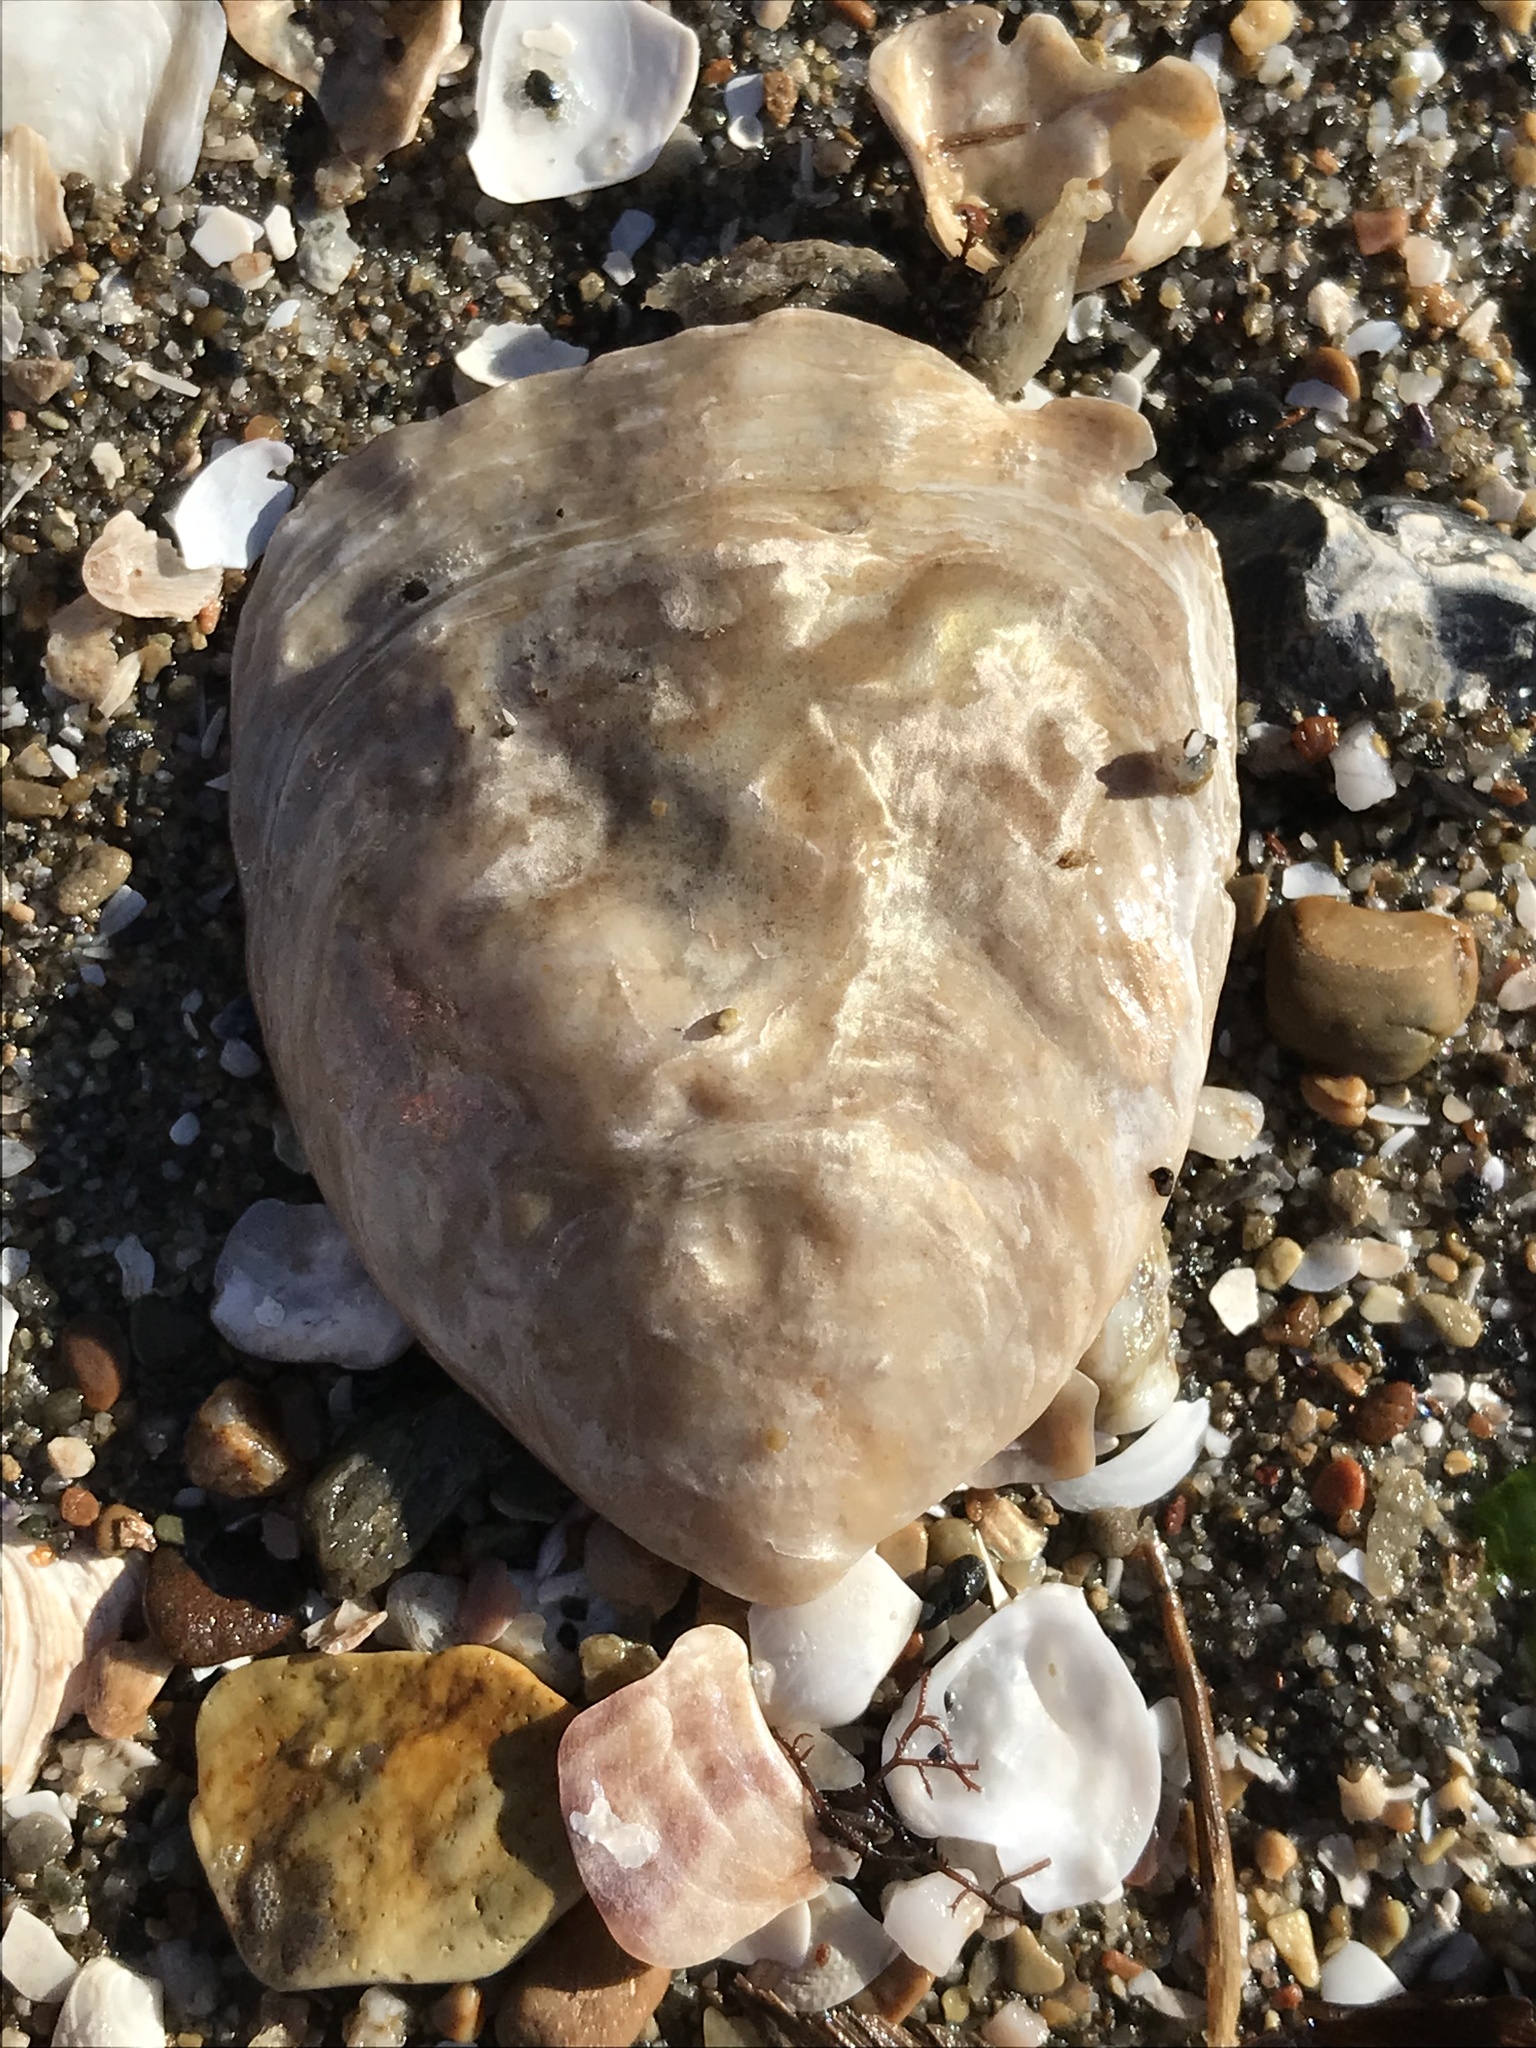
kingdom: Animalia
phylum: Mollusca
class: Bivalvia
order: Ostreida
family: Ostreidae
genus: Ostrea
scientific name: Ostrea lurida
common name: Olympia flat oyster
